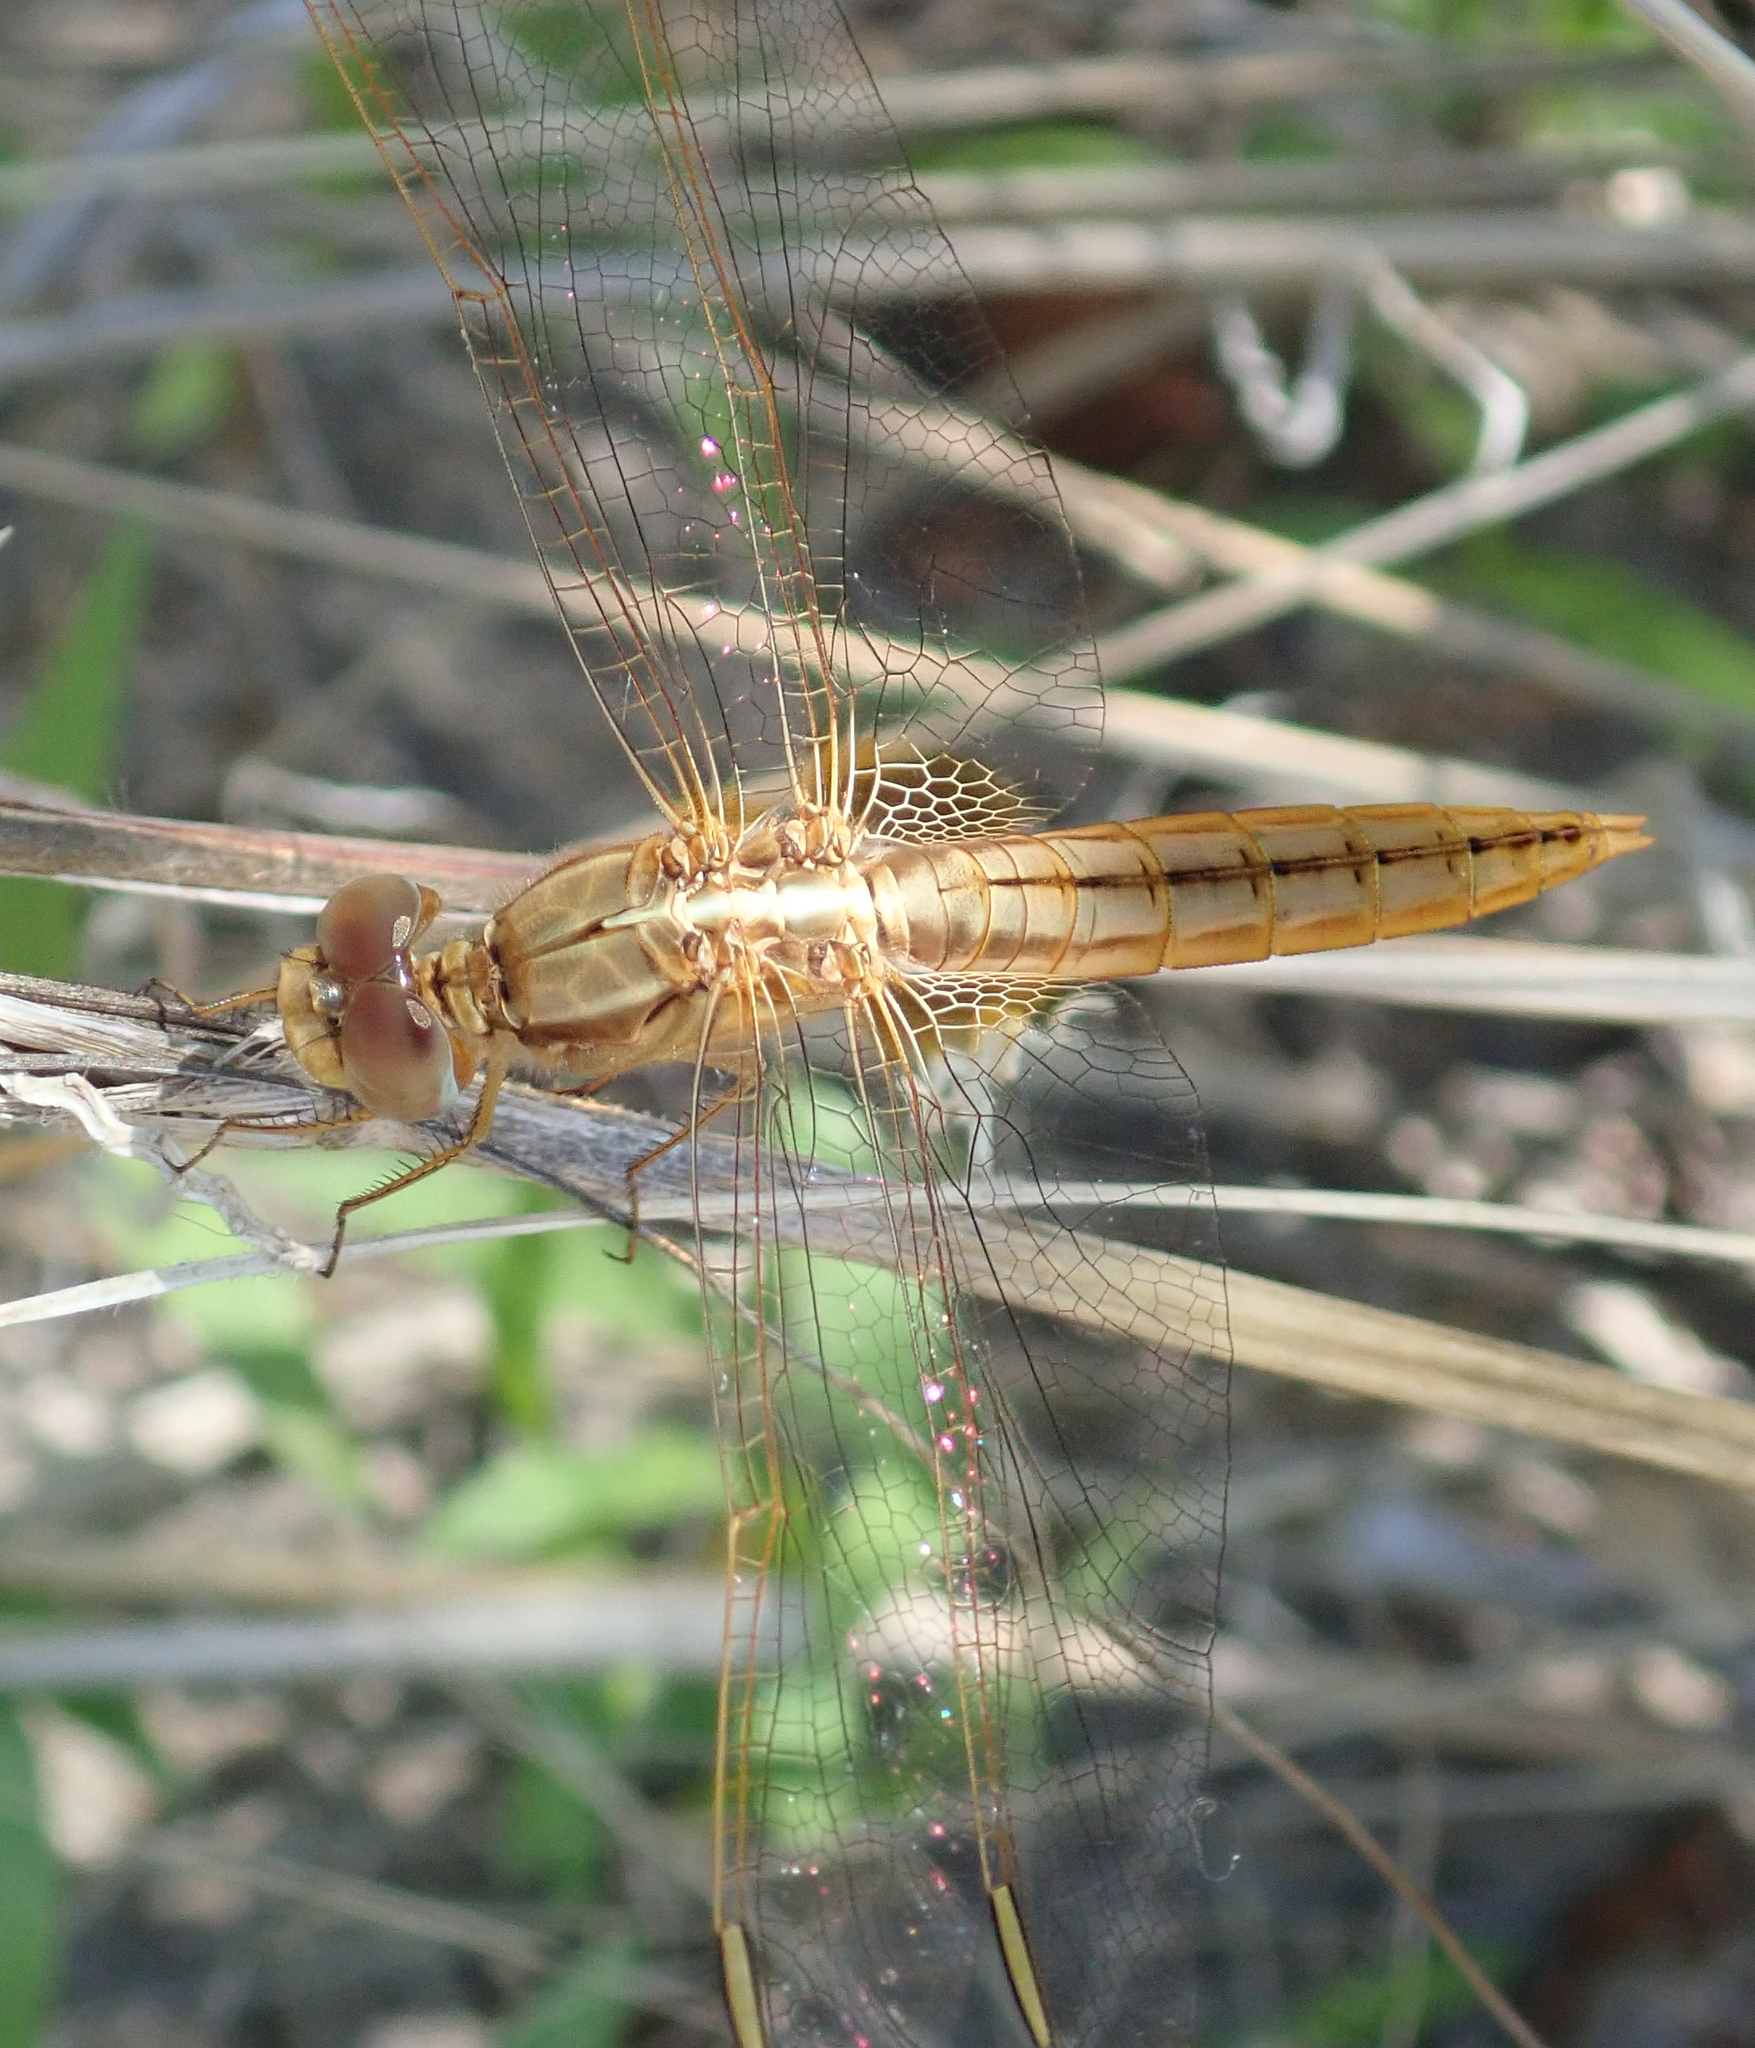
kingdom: Animalia
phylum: Arthropoda
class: Insecta
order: Odonata
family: Libellulidae
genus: Crocothemis
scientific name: Crocothemis erythraea
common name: Scarlet dragonfly
